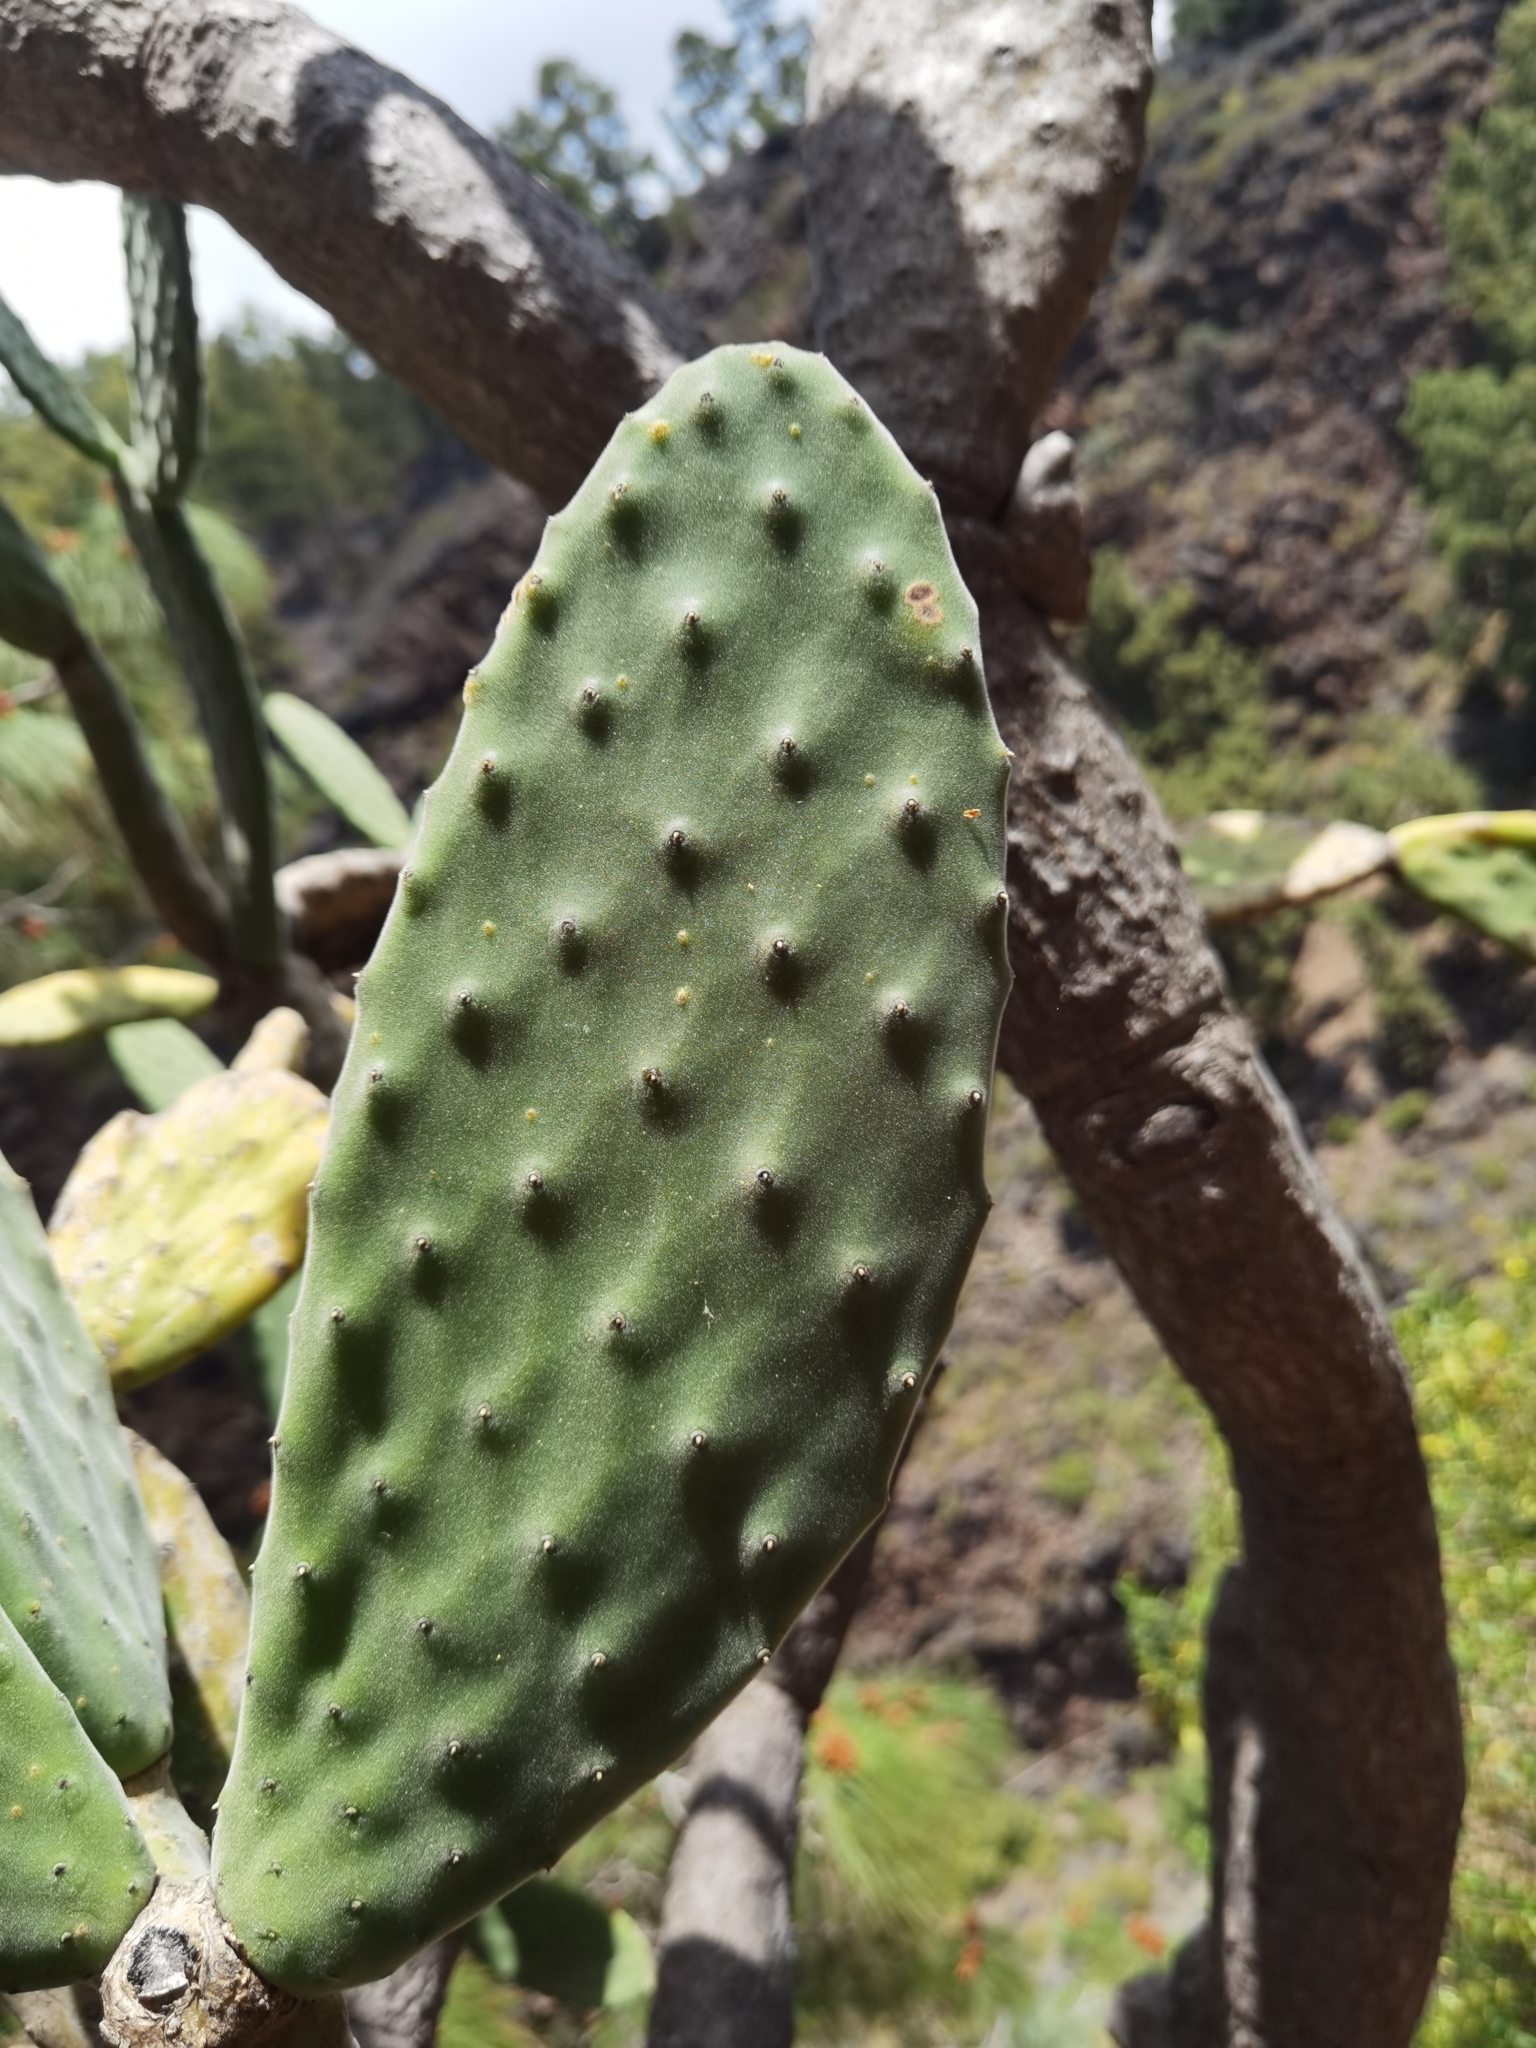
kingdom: Plantae
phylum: Tracheophyta
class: Magnoliopsida
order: Caryophyllales
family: Cactaceae
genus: Opuntia
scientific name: Opuntia tomentosa
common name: Woollyjoint pricklypear
